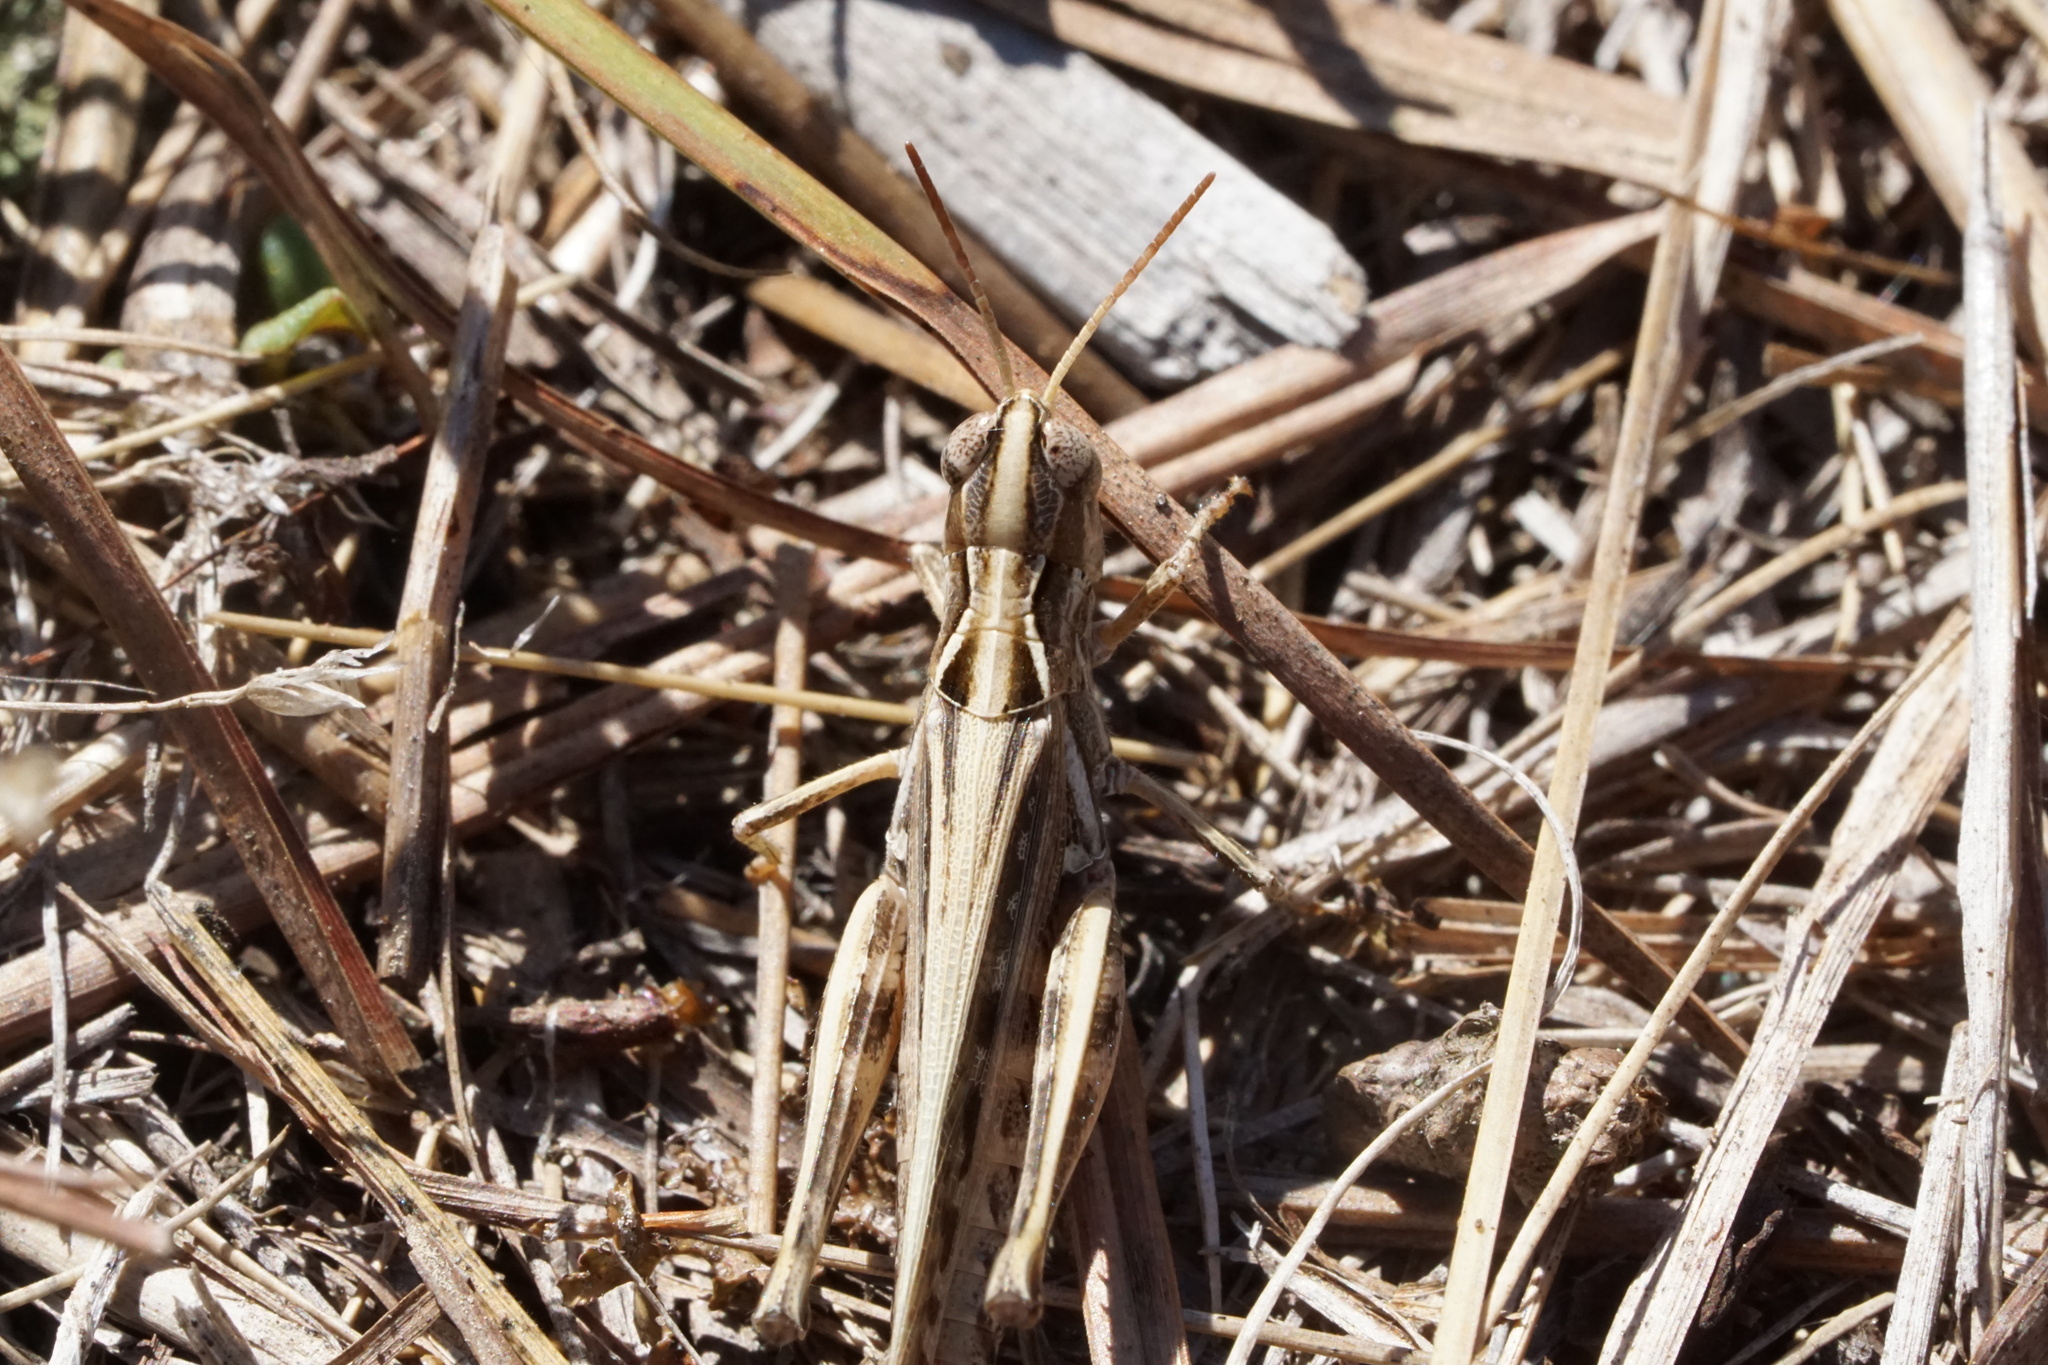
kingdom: Animalia
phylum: Arthropoda
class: Insecta
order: Orthoptera
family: Acrididae
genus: Orphulella
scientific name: Orphulella pelidna
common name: Spotted-wing grasshopper
